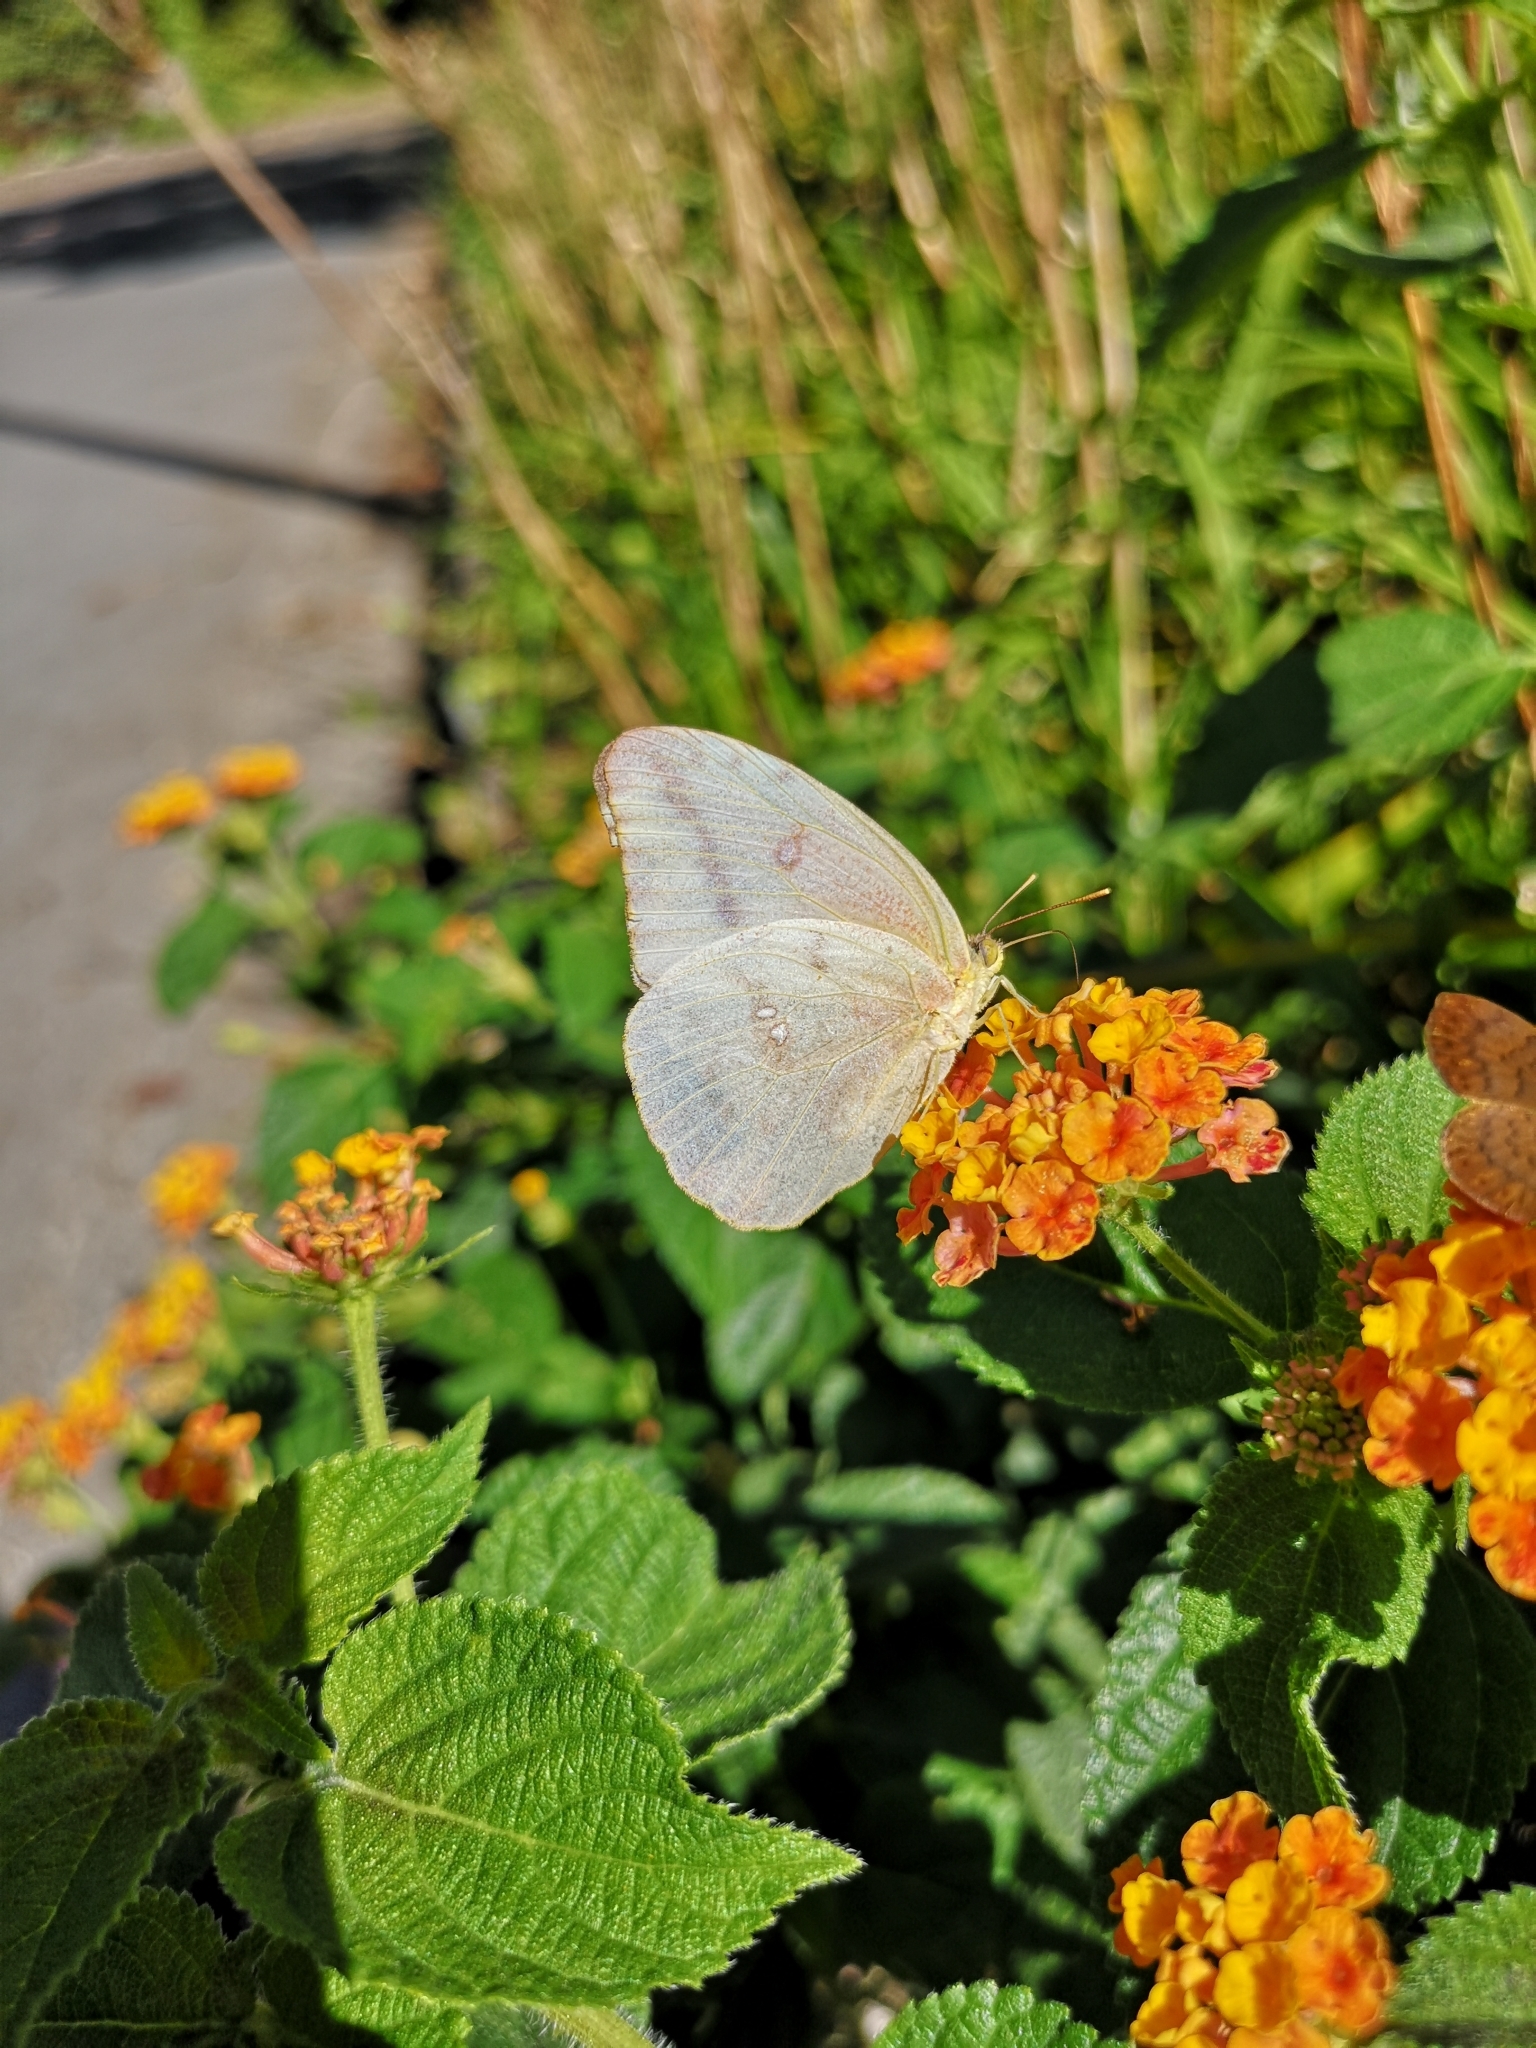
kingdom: Animalia
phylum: Arthropoda
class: Insecta
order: Lepidoptera
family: Pieridae
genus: Phoebis
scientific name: Phoebis agarithe
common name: Large orange sulphur
